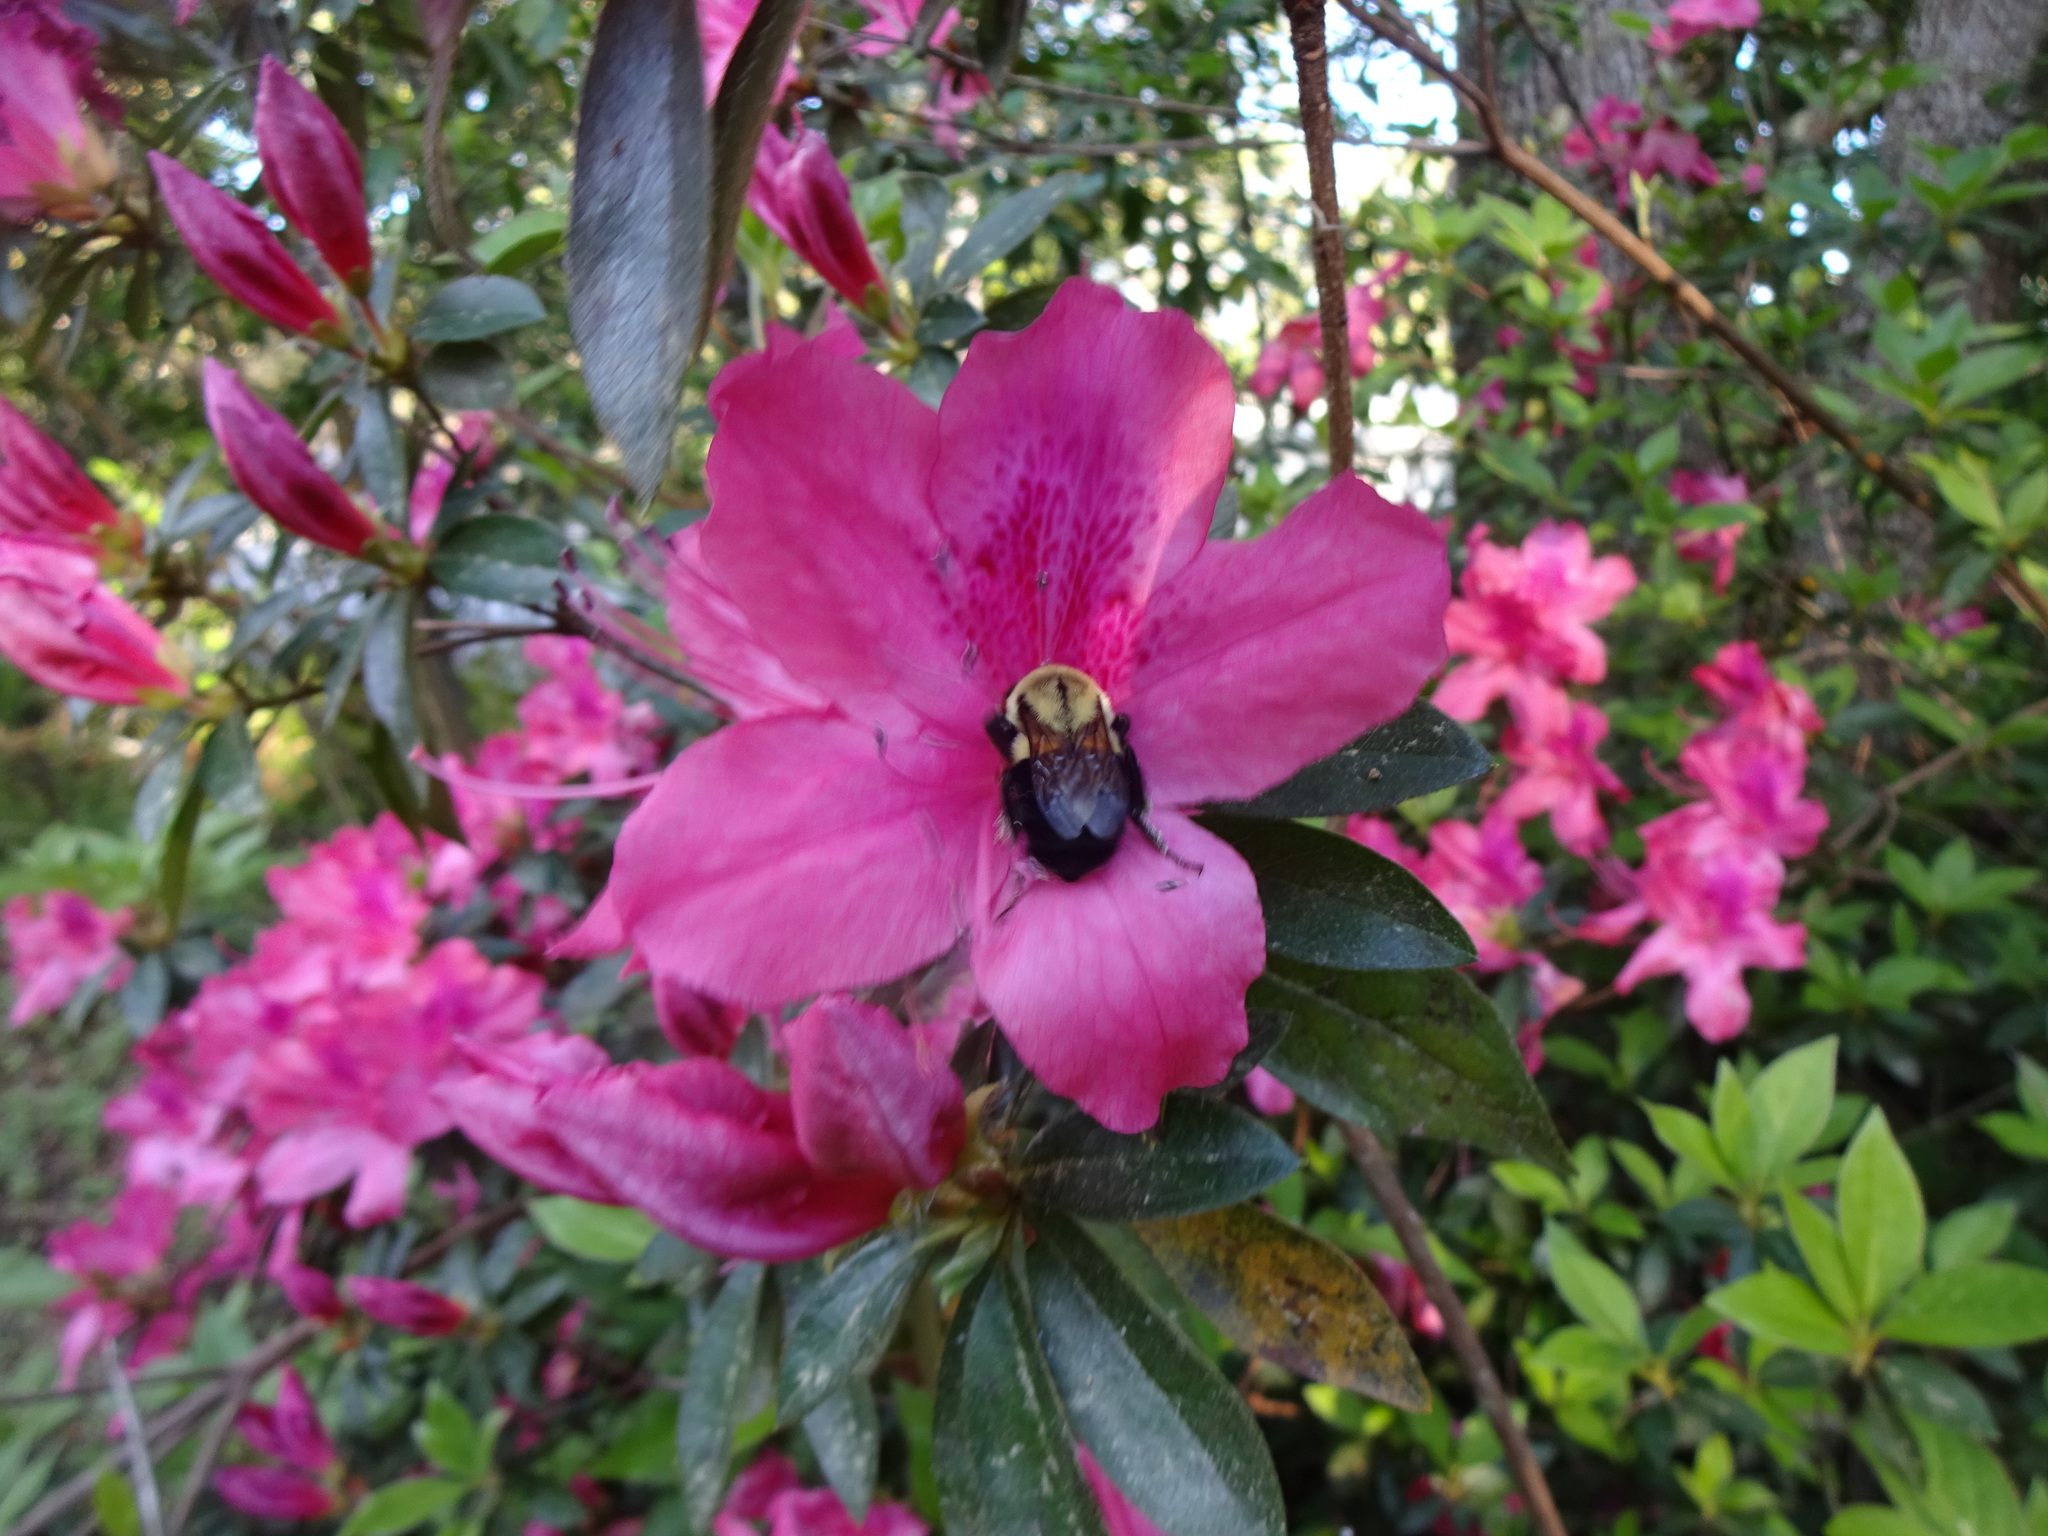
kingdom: Animalia
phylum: Arthropoda
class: Insecta
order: Hymenoptera
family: Apidae
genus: Bombus
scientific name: Bombus impatiens
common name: Common eastern bumble bee
